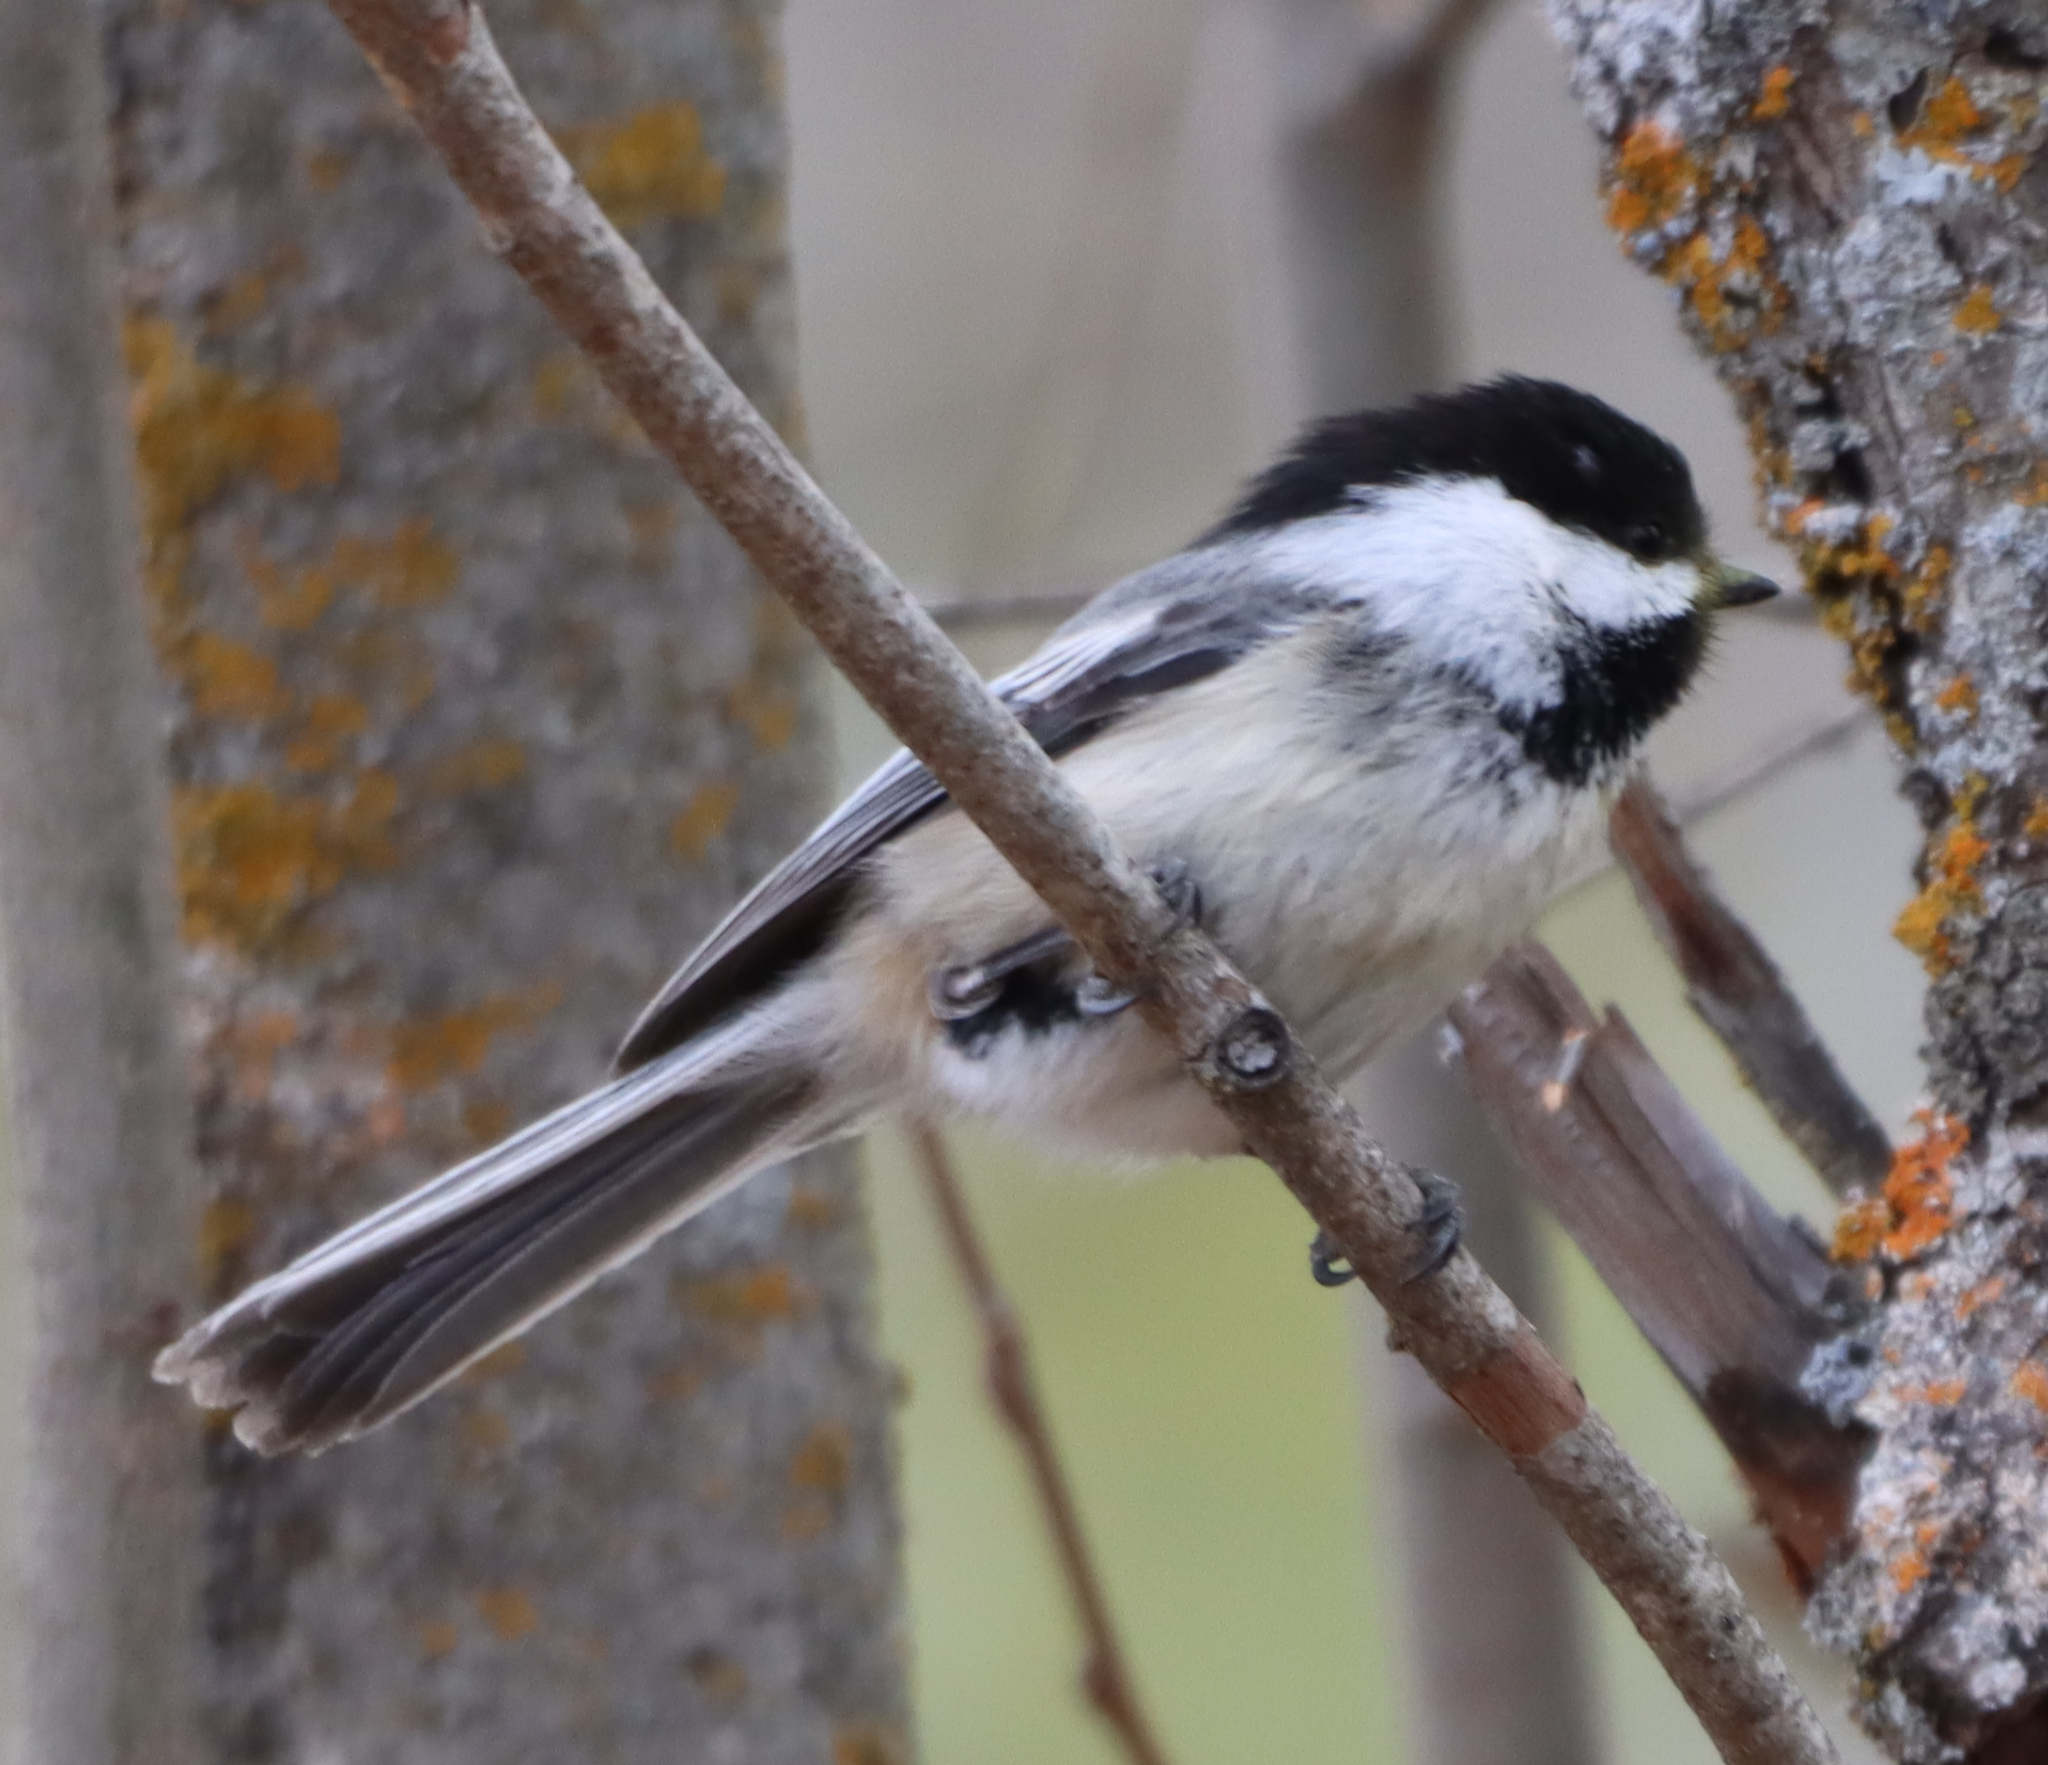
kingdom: Animalia
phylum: Chordata
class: Aves
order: Passeriformes
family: Paridae
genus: Poecile
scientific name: Poecile atricapillus
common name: Black-capped chickadee
